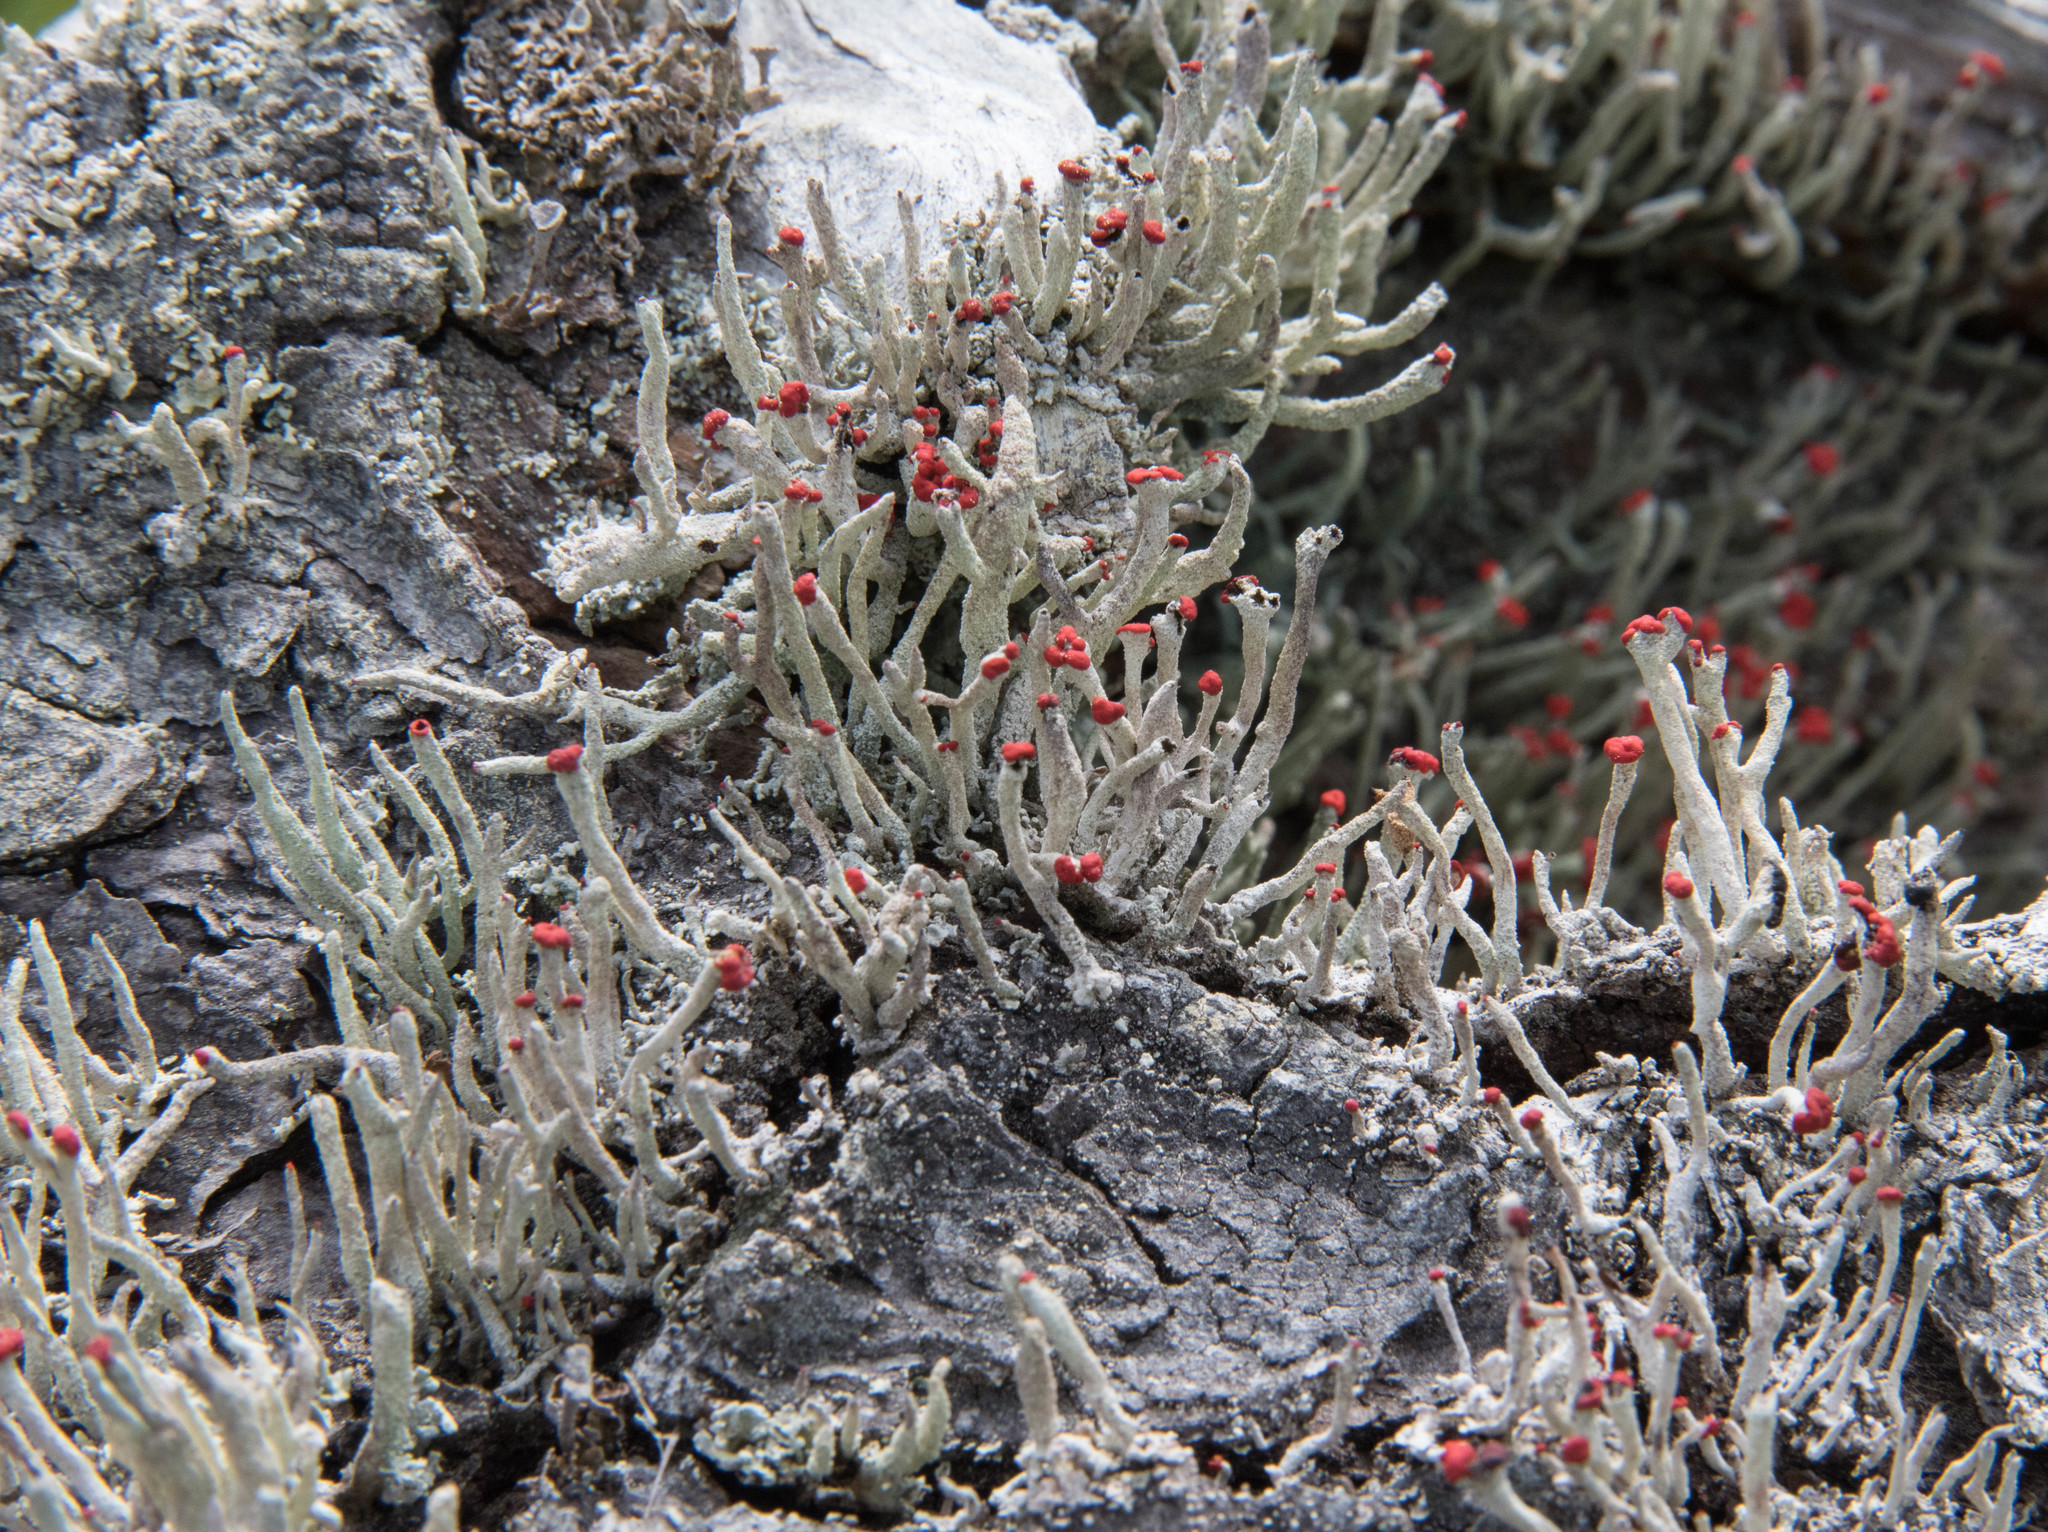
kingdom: Fungi
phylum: Ascomycota
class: Lecanoromycetes
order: Lecanorales
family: Cladoniaceae
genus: Cladonia
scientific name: Cladonia macilenta
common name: Lipstick powderhorn
